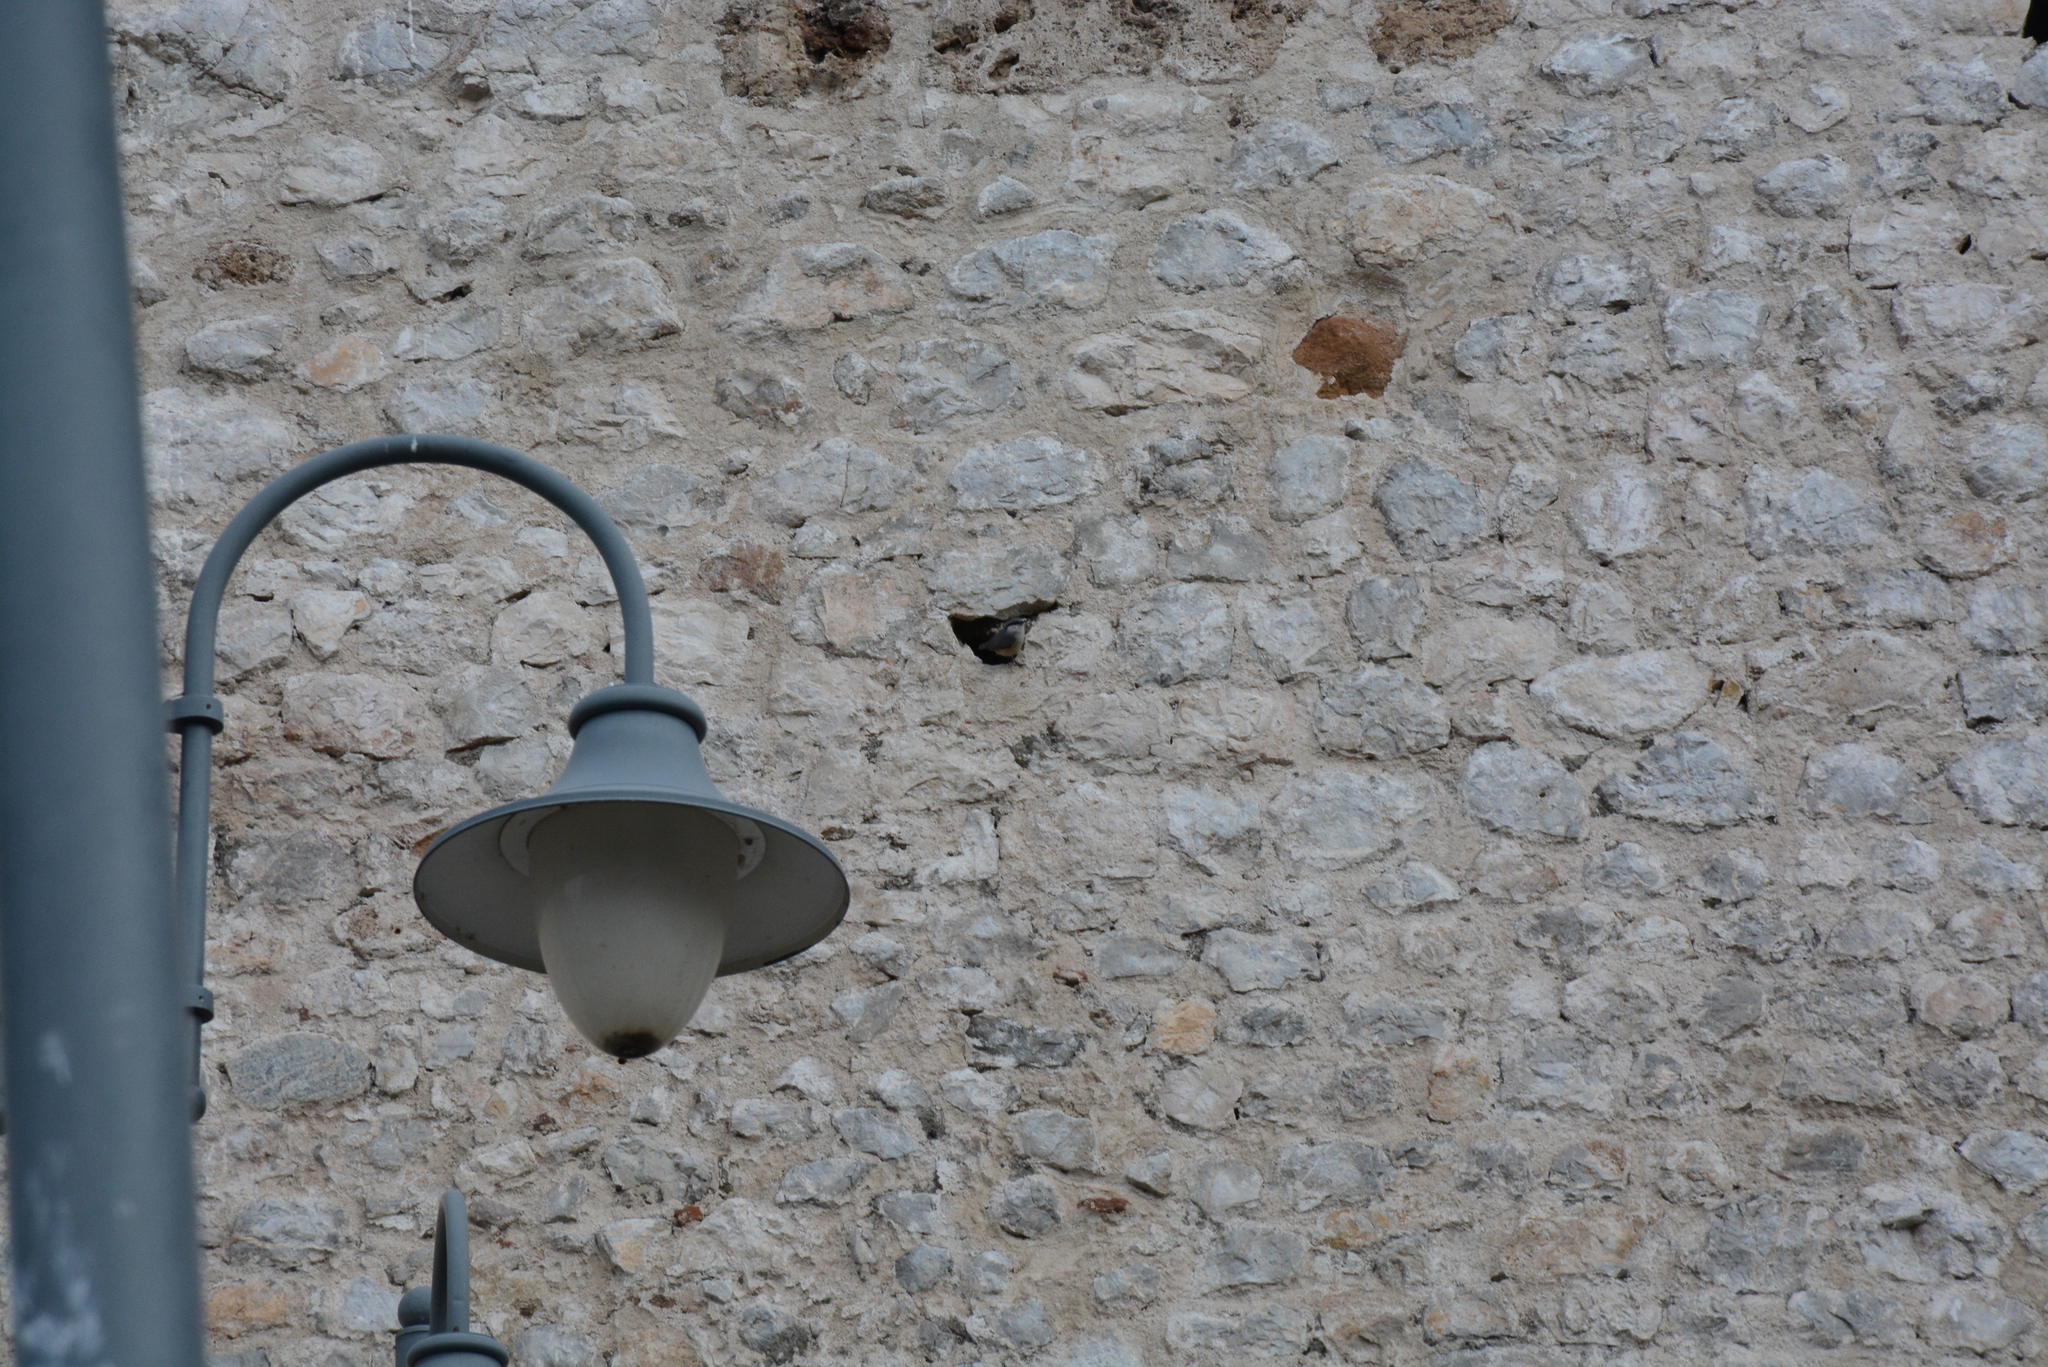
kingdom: Animalia
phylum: Chordata
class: Aves
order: Passeriformes
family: Sittidae
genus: Sitta
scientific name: Sitta neumayer
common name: Western rock nuthatch
